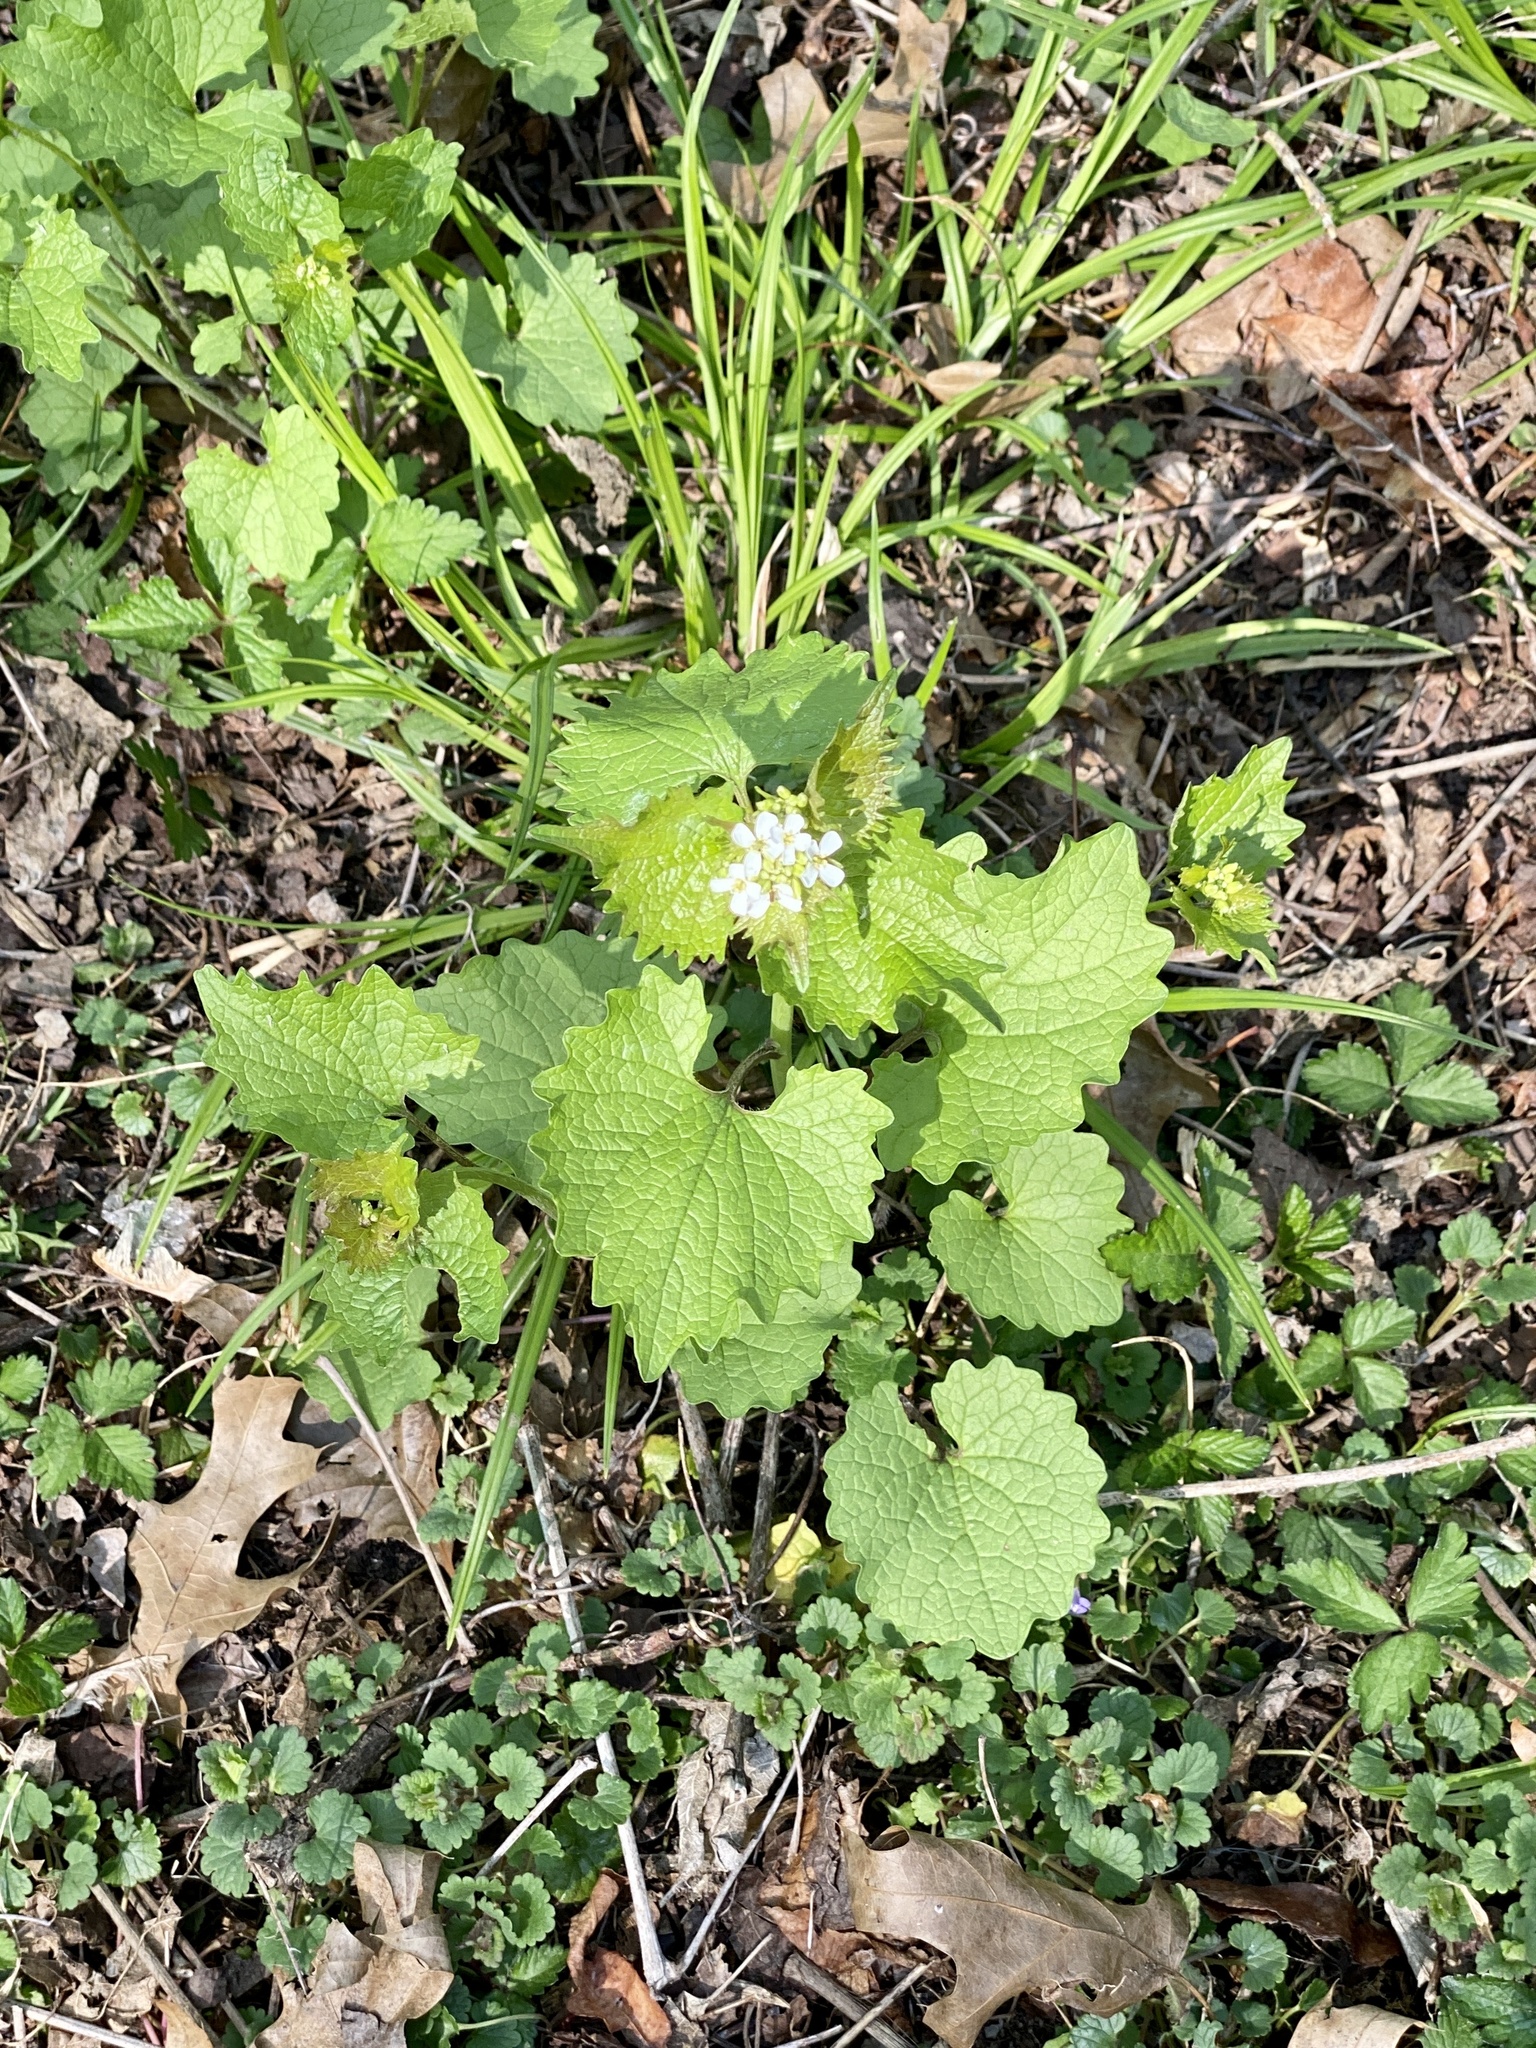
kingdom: Plantae
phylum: Tracheophyta
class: Magnoliopsida
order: Brassicales
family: Brassicaceae
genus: Alliaria
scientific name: Alliaria petiolata
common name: Garlic mustard
